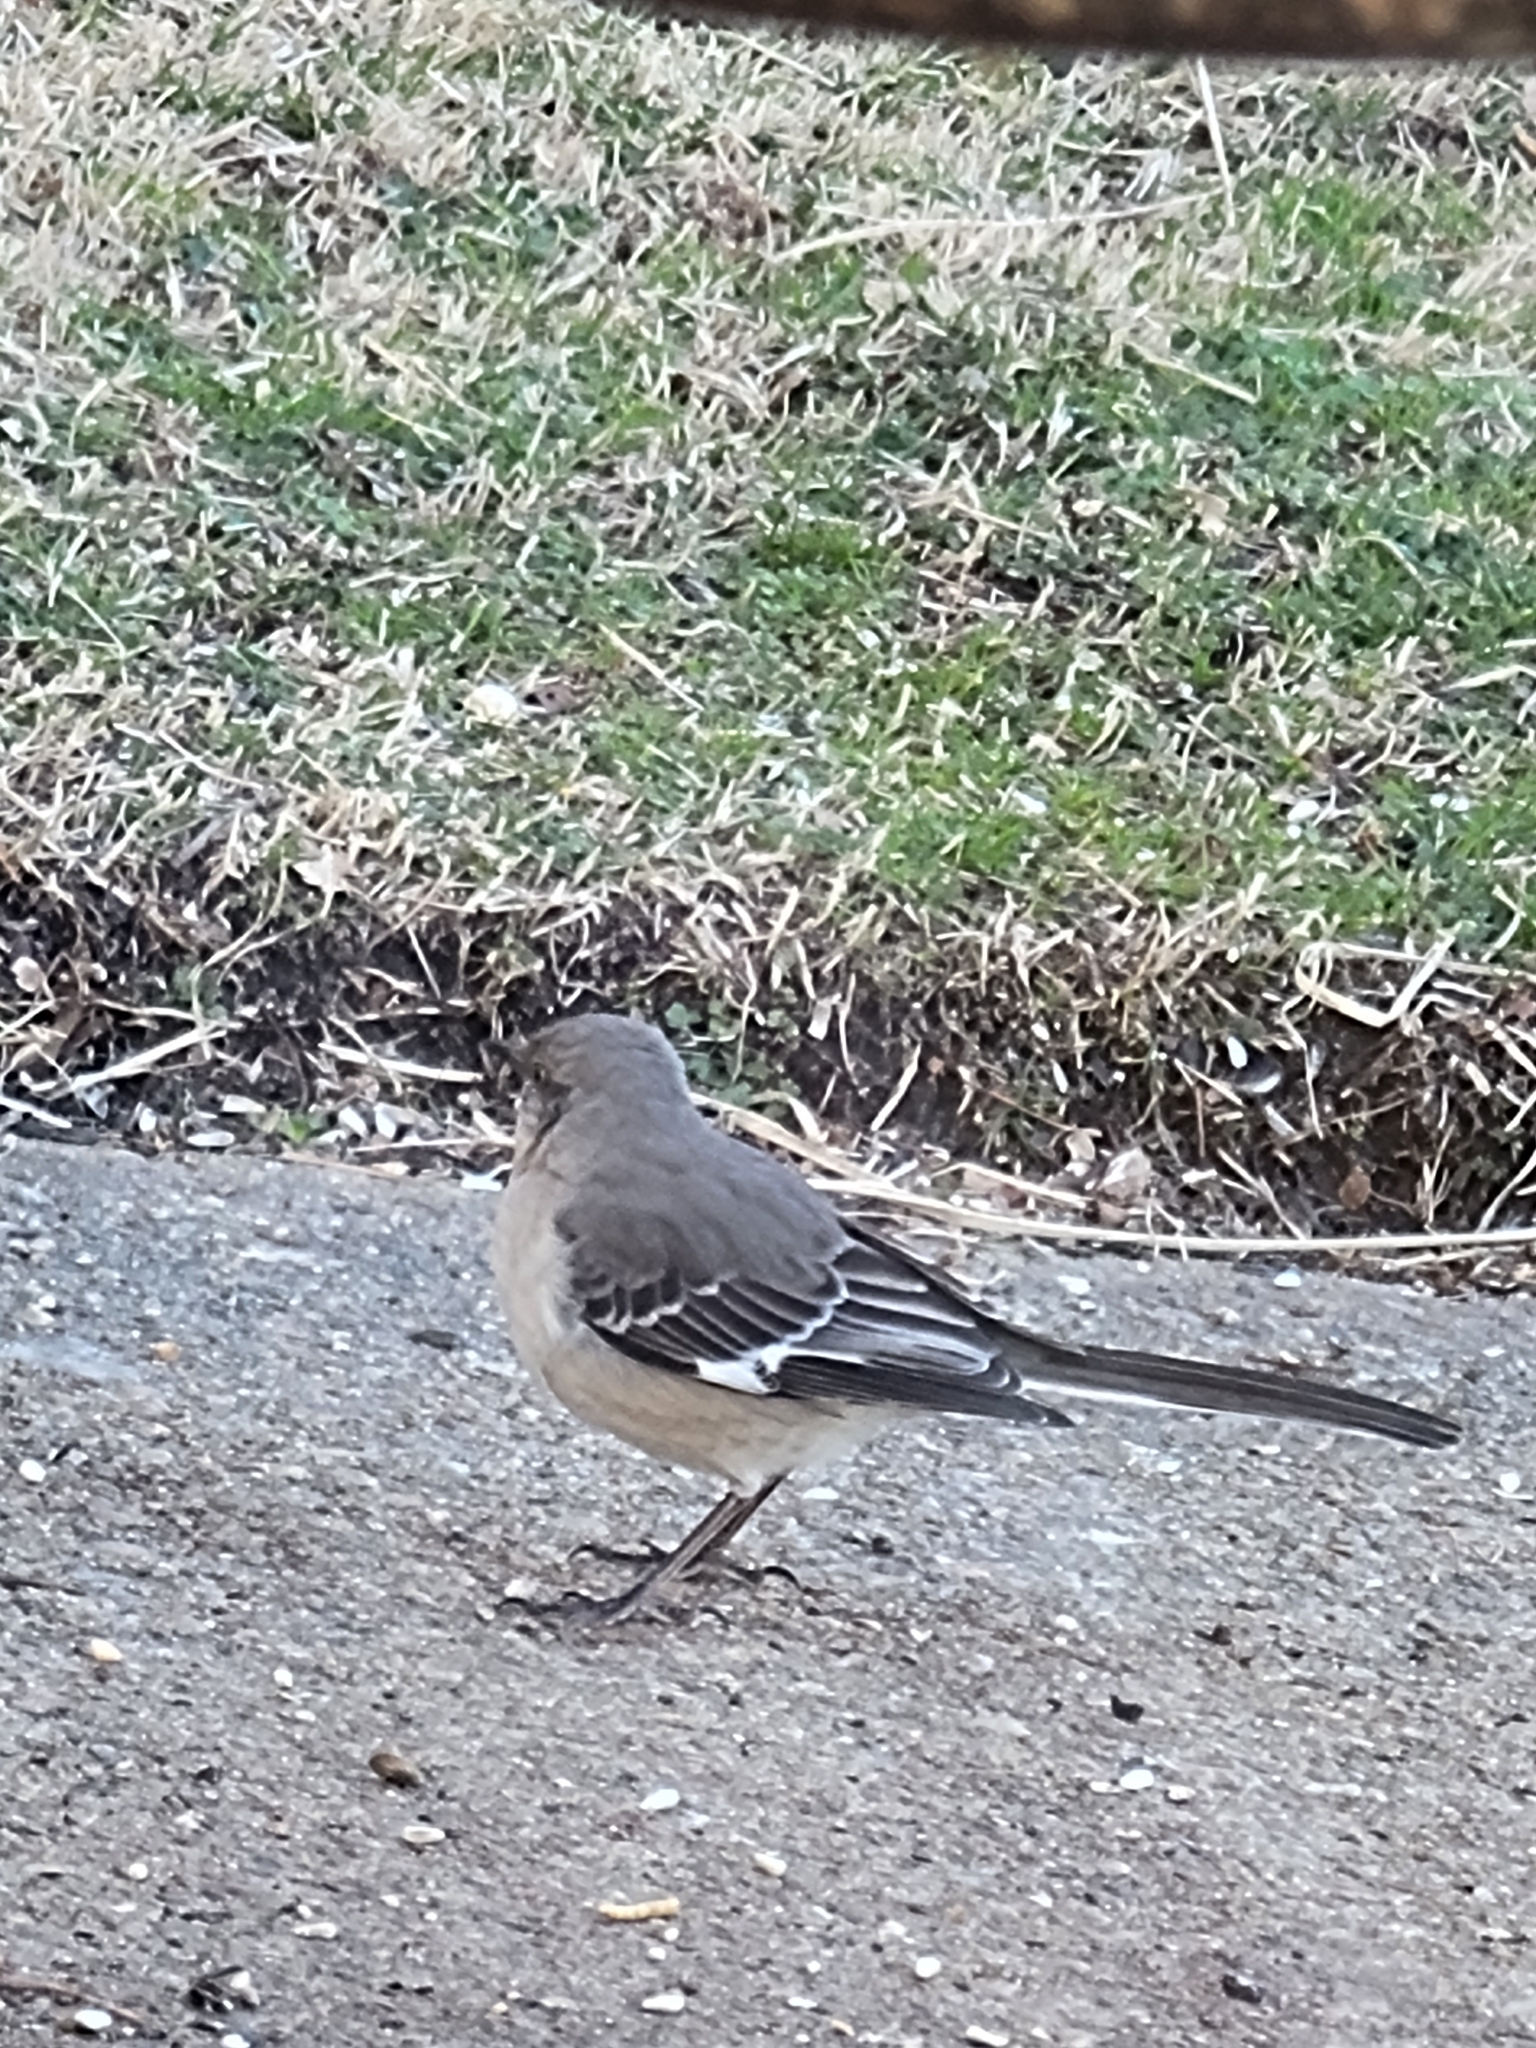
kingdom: Animalia
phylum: Chordata
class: Aves
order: Passeriformes
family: Mimidae
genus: Mimus
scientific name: Mimus polyglottos
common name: Northern mockingbird
